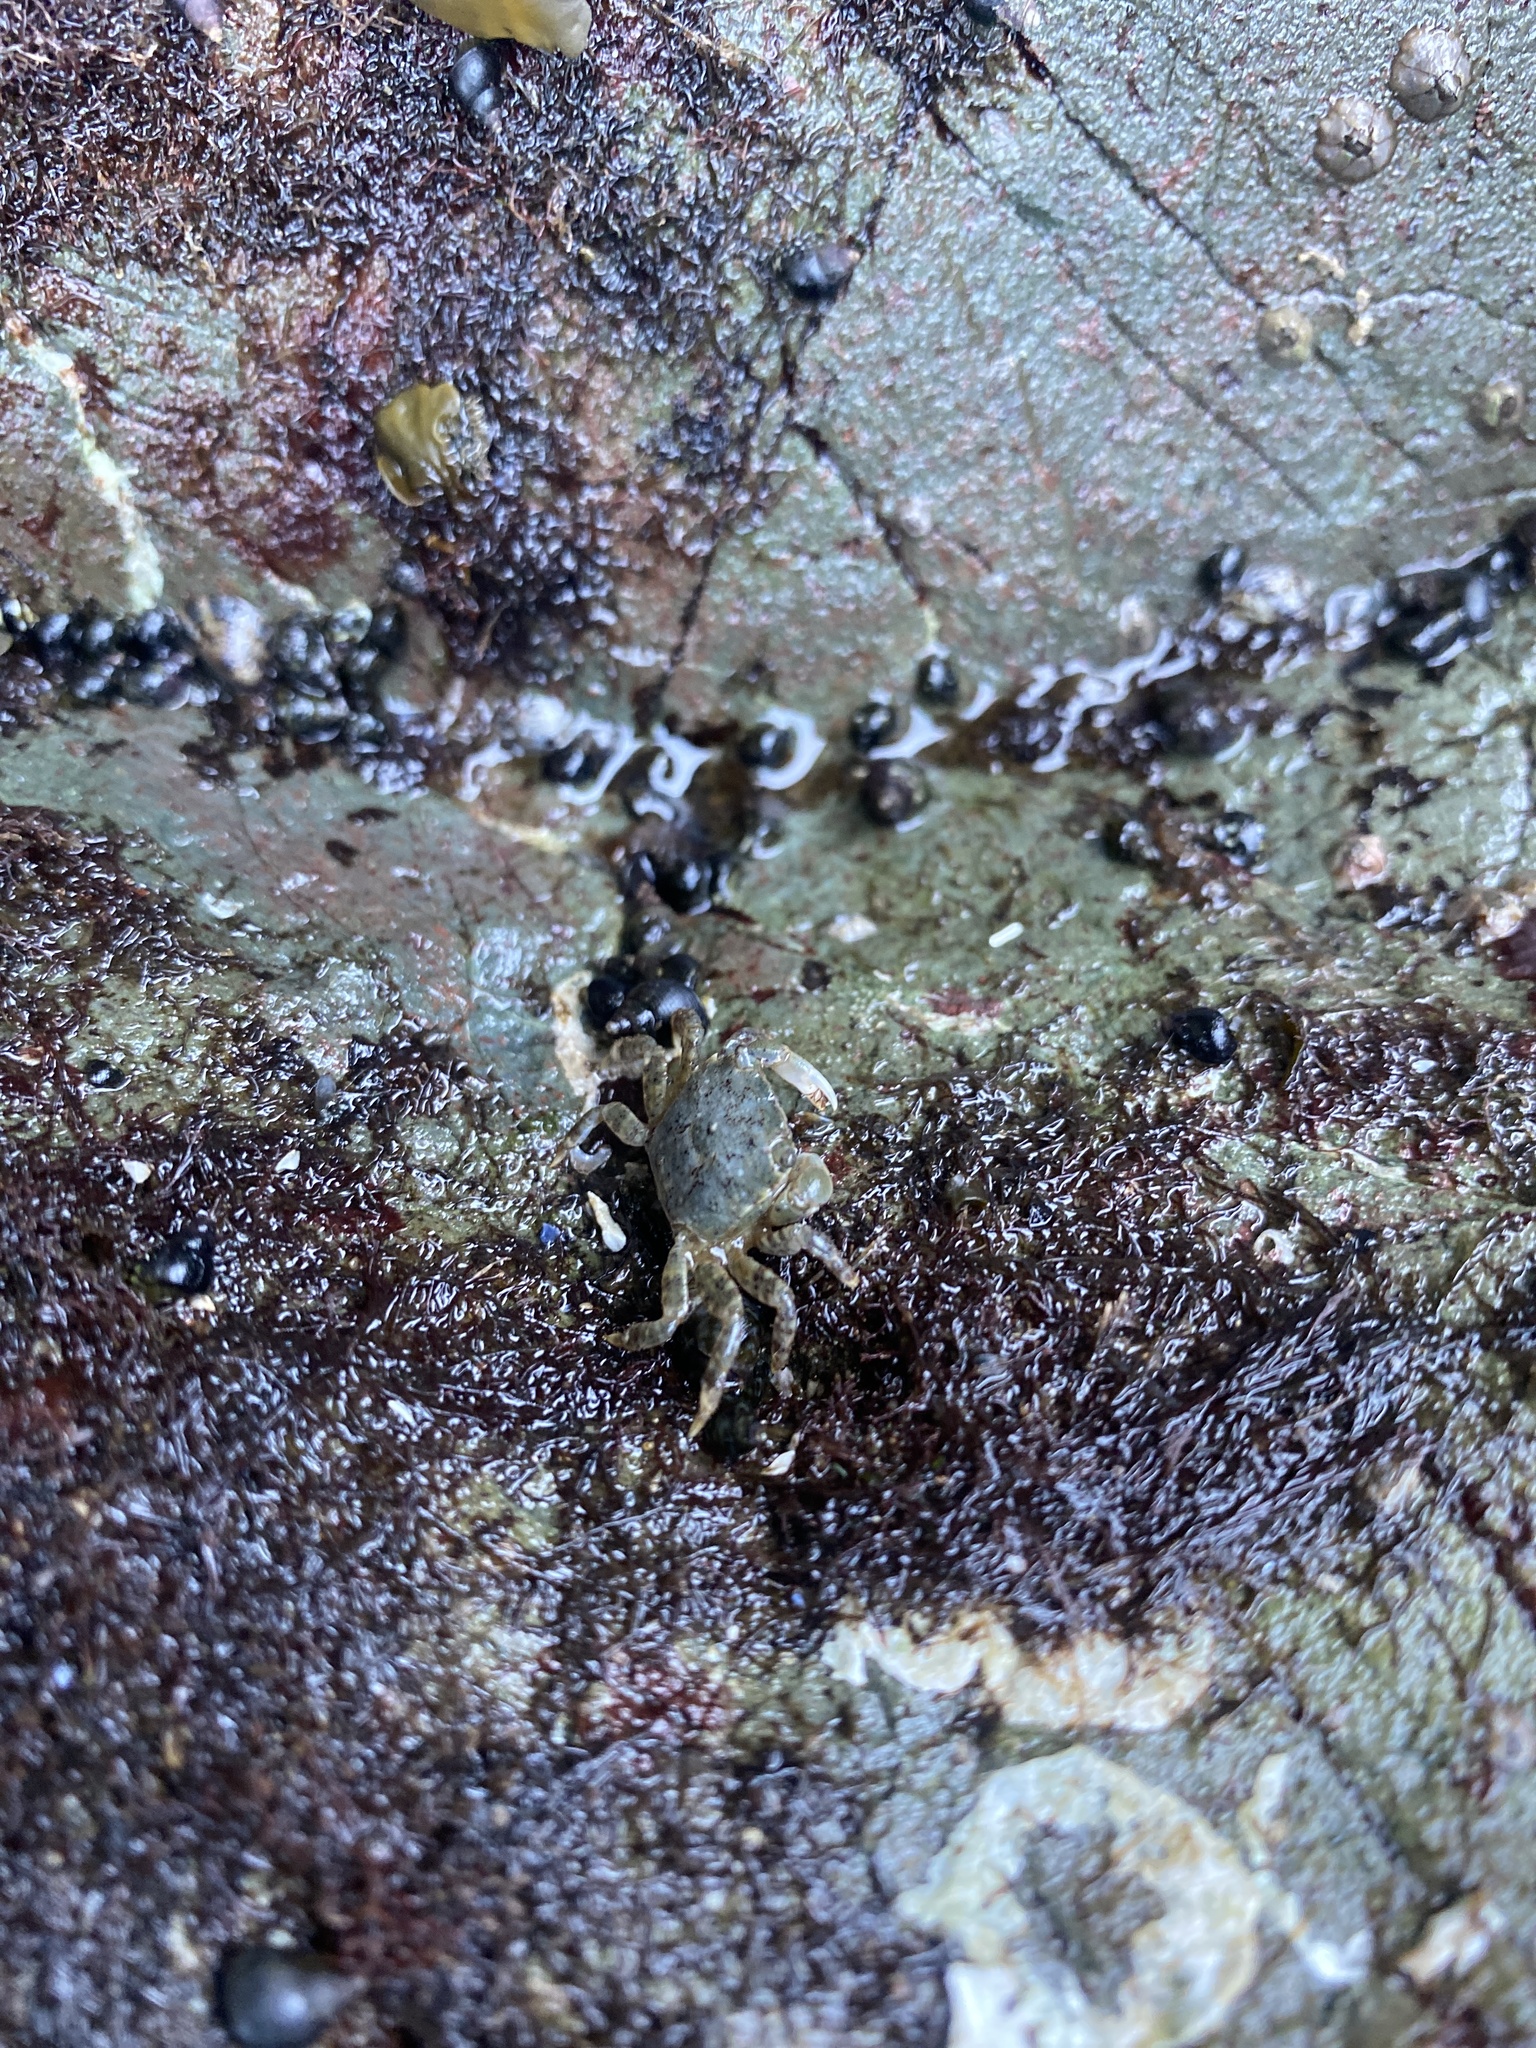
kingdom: Animalia
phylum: Arthropoda
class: Malacostraca
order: Decapoda
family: Varunidae
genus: Hemigrapsus
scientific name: Hemigrapsus oregonensis
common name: Yellow shore crab
